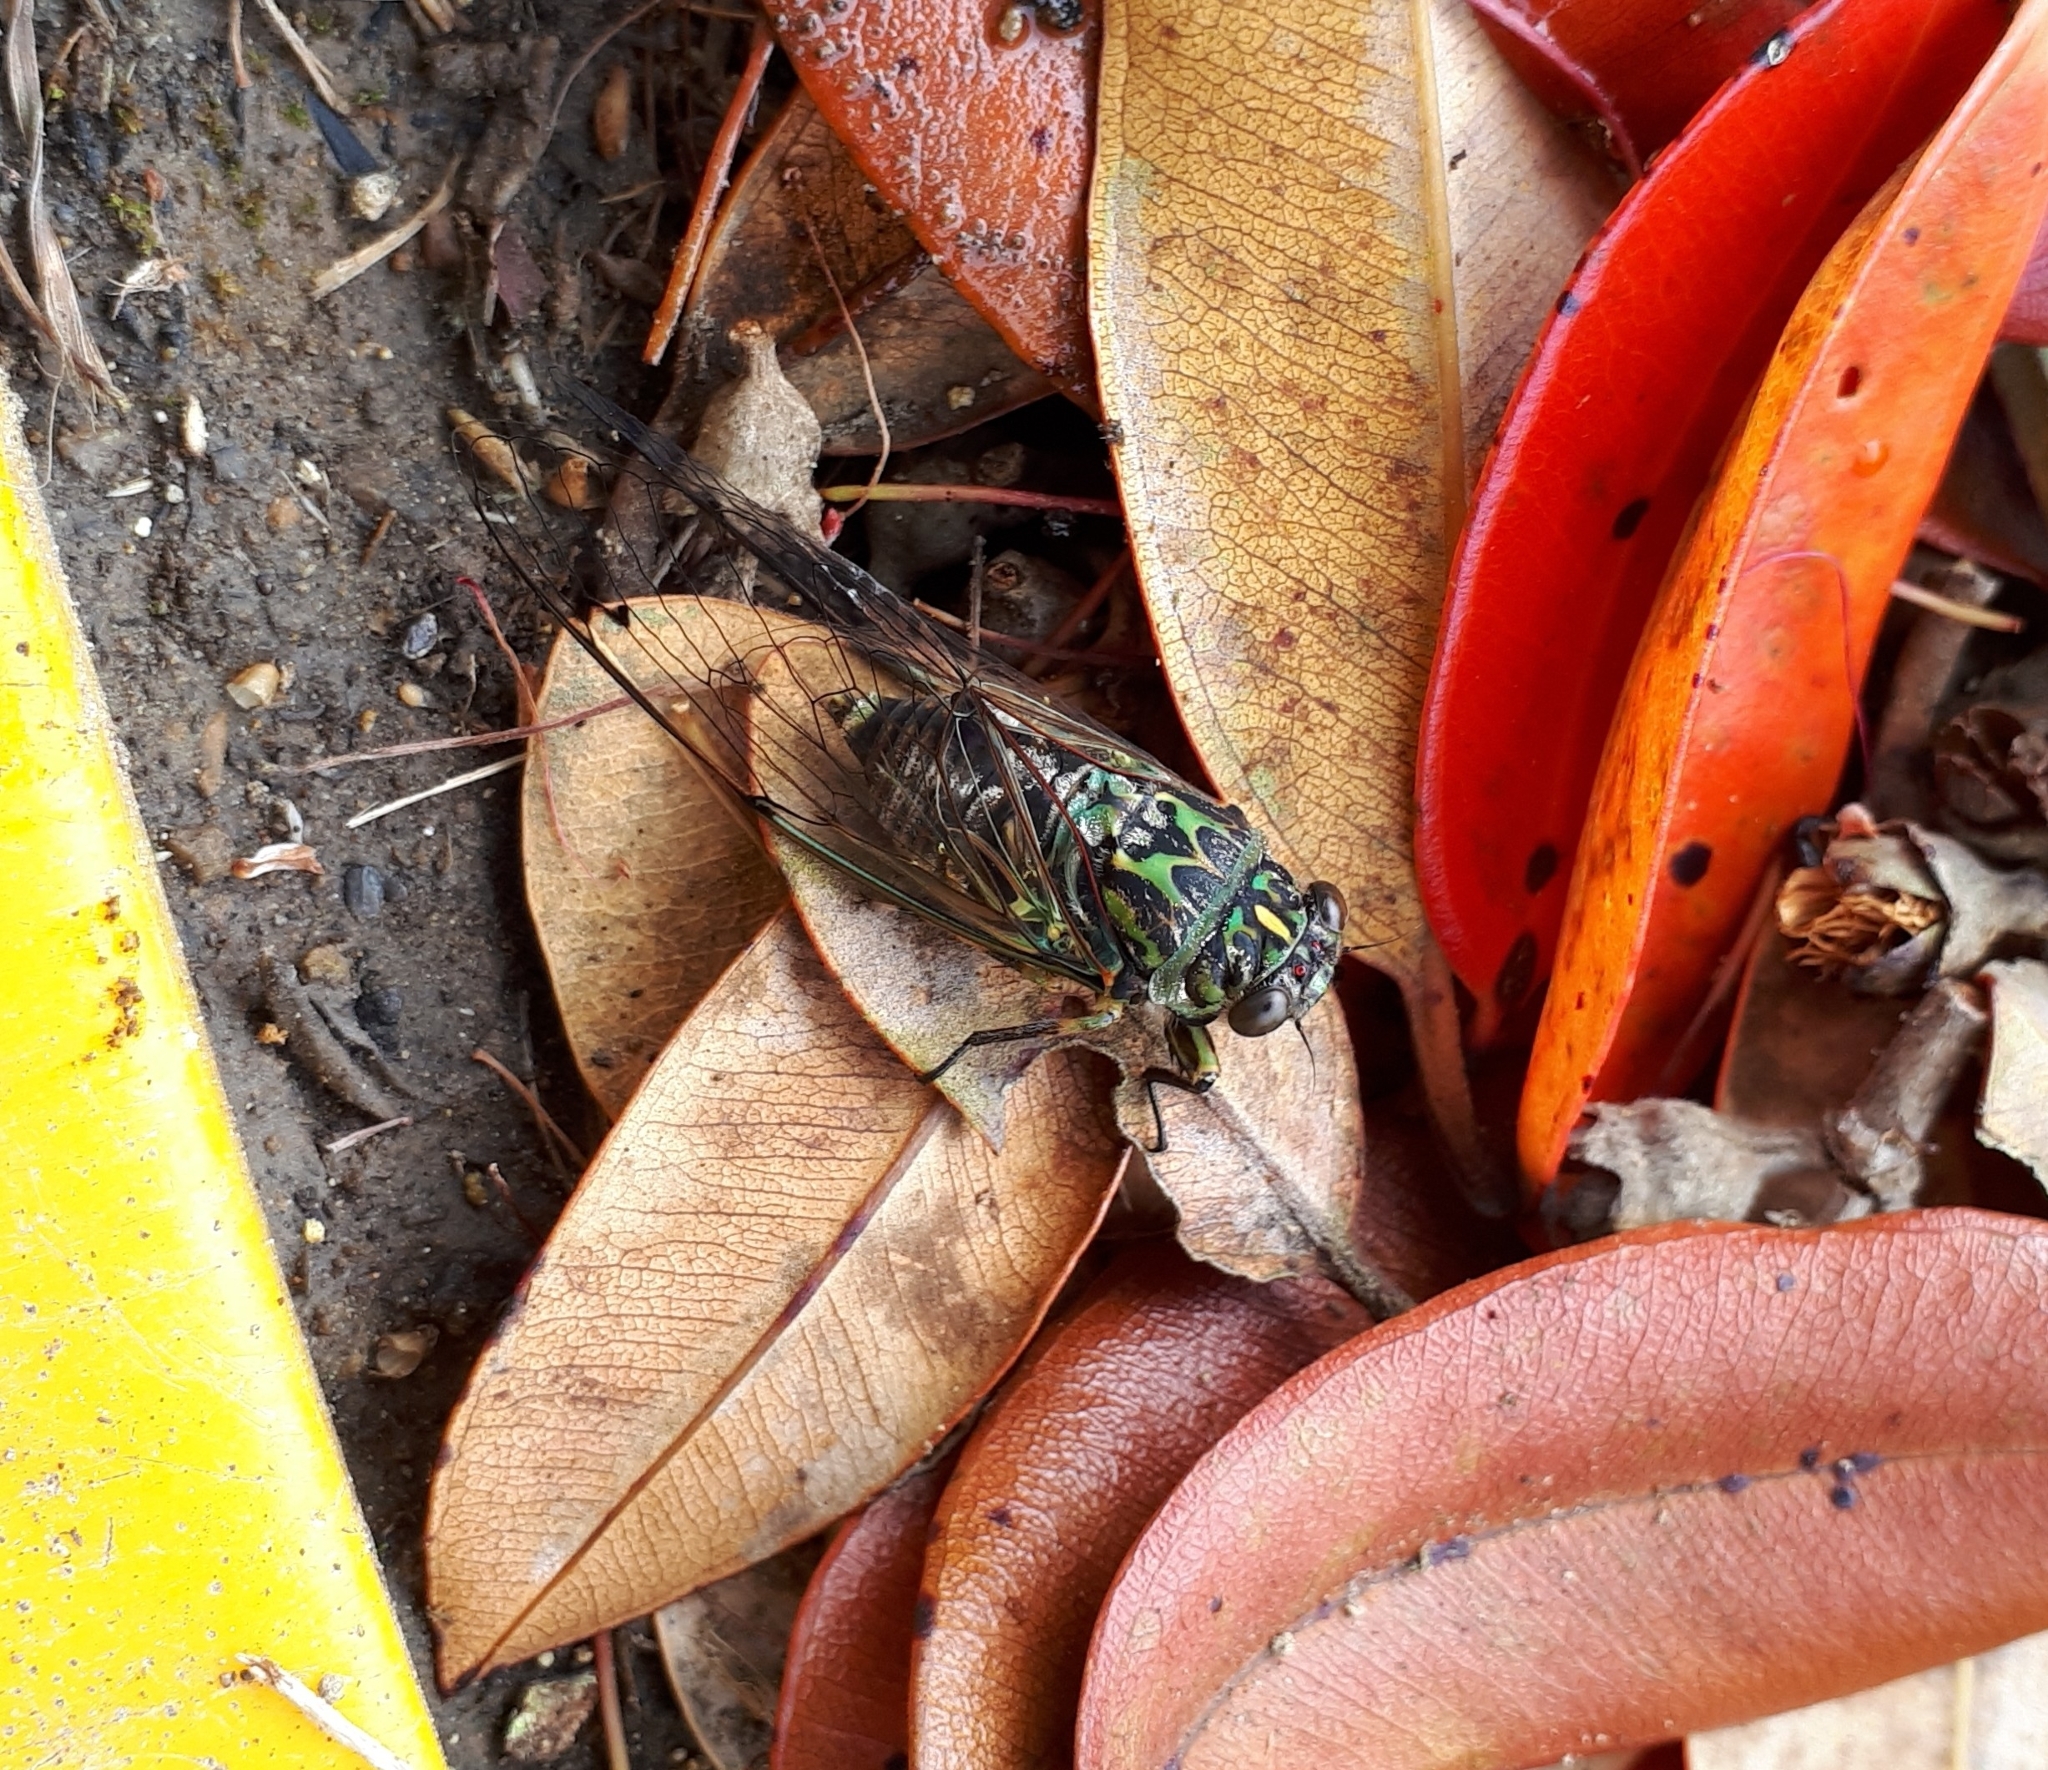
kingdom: Animalia
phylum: Arthropoda
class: Insecta
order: Hemiptera
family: Cicadidae
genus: Amphipsalta
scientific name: Amphipsalta zelandica
